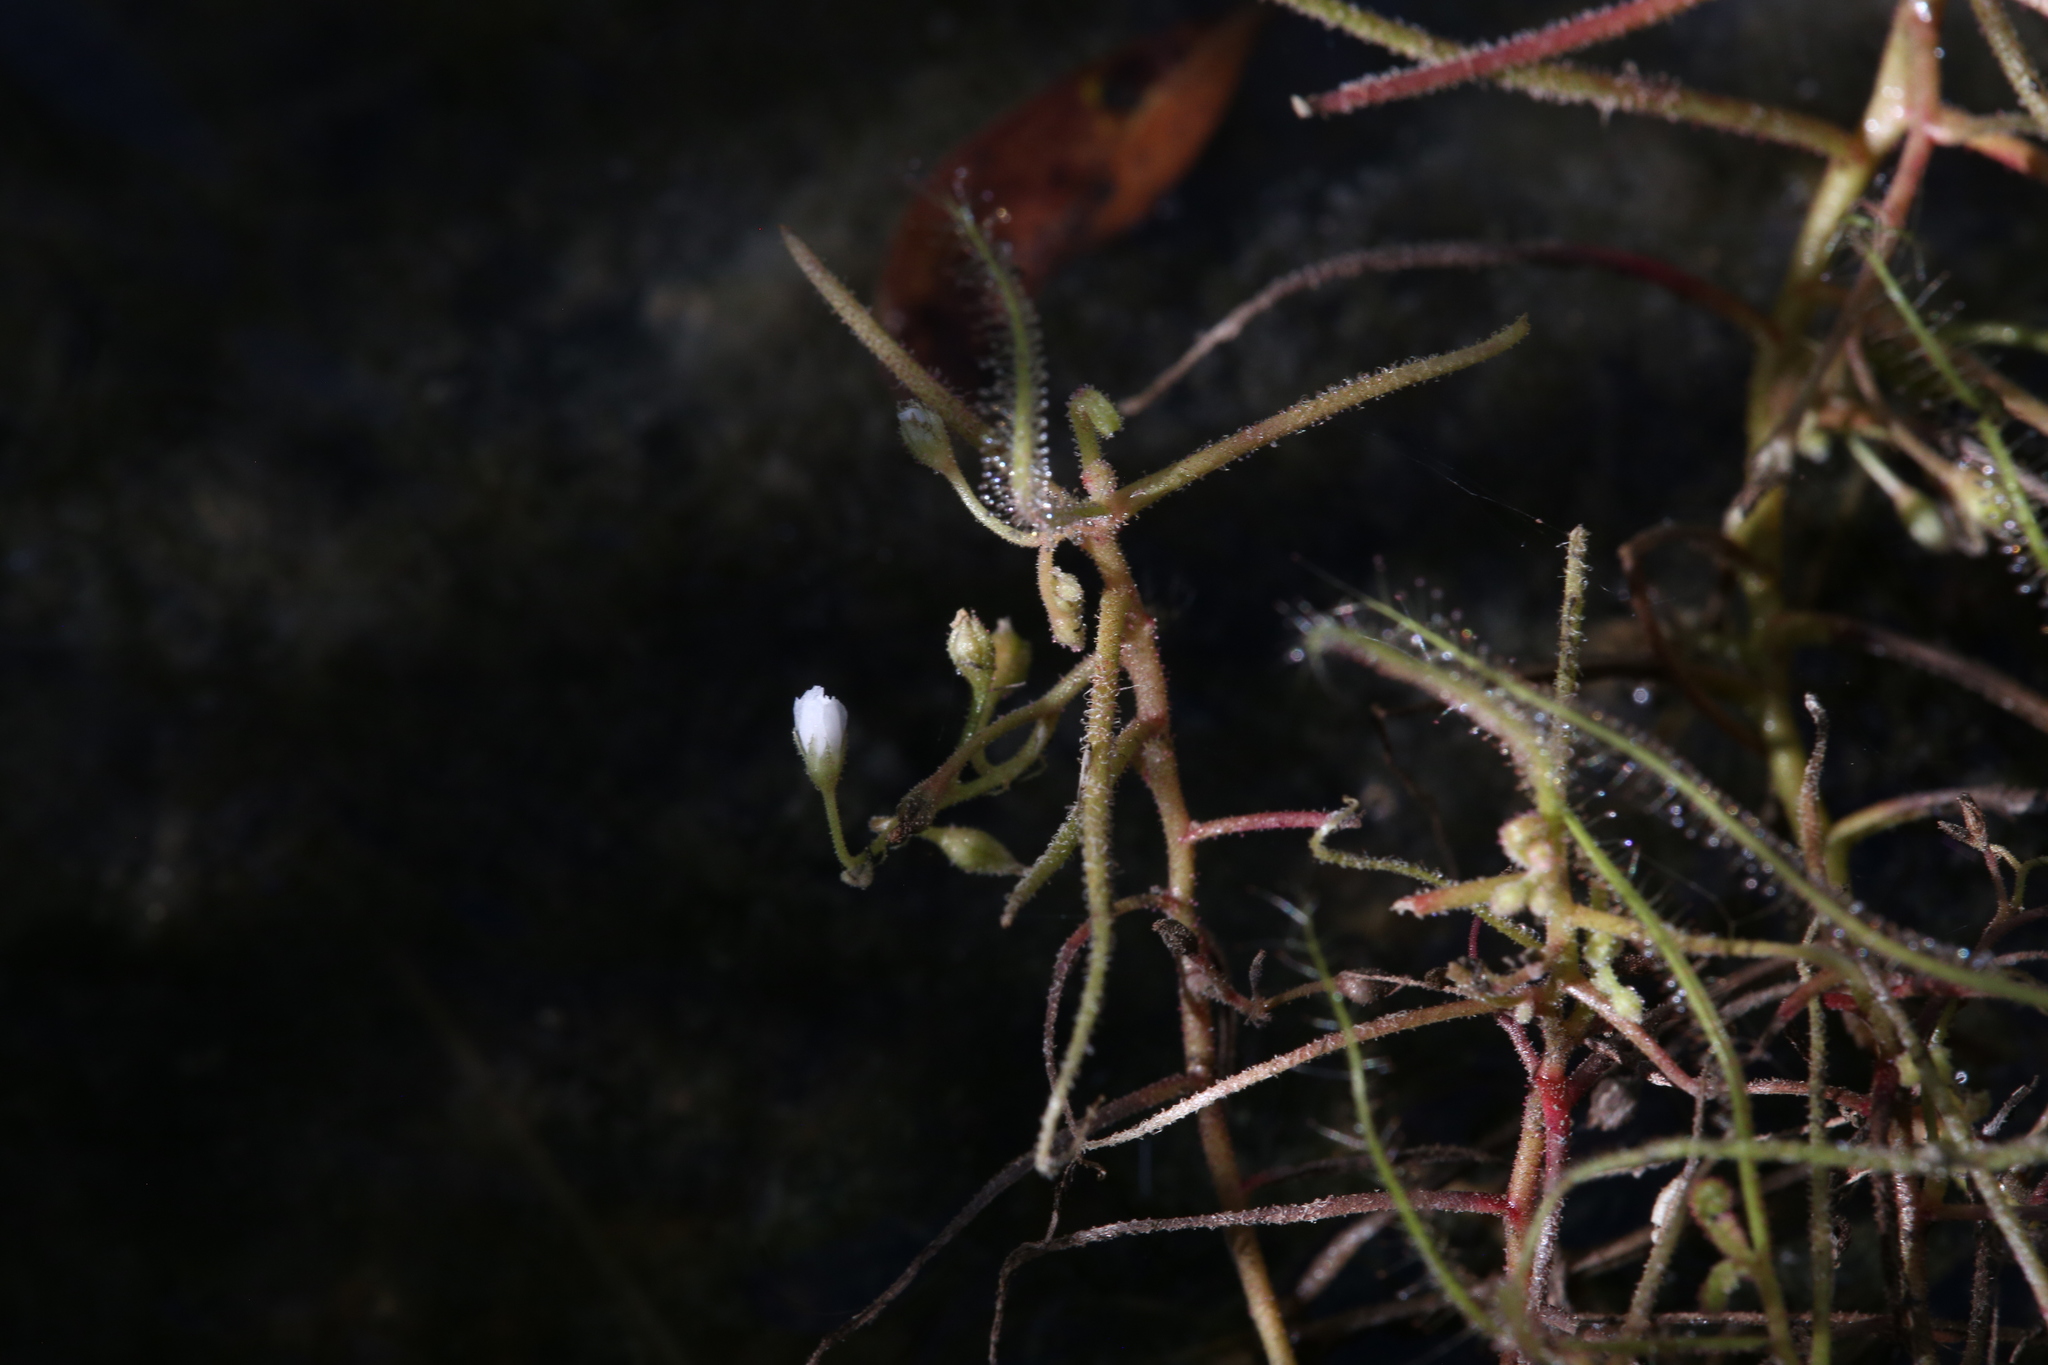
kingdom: Plantae
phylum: Tracheophyta
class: Magnoliopsida
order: Caryophyllales
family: Droseraceae
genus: Drosera
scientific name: Drosera indica
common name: Indian sundew
